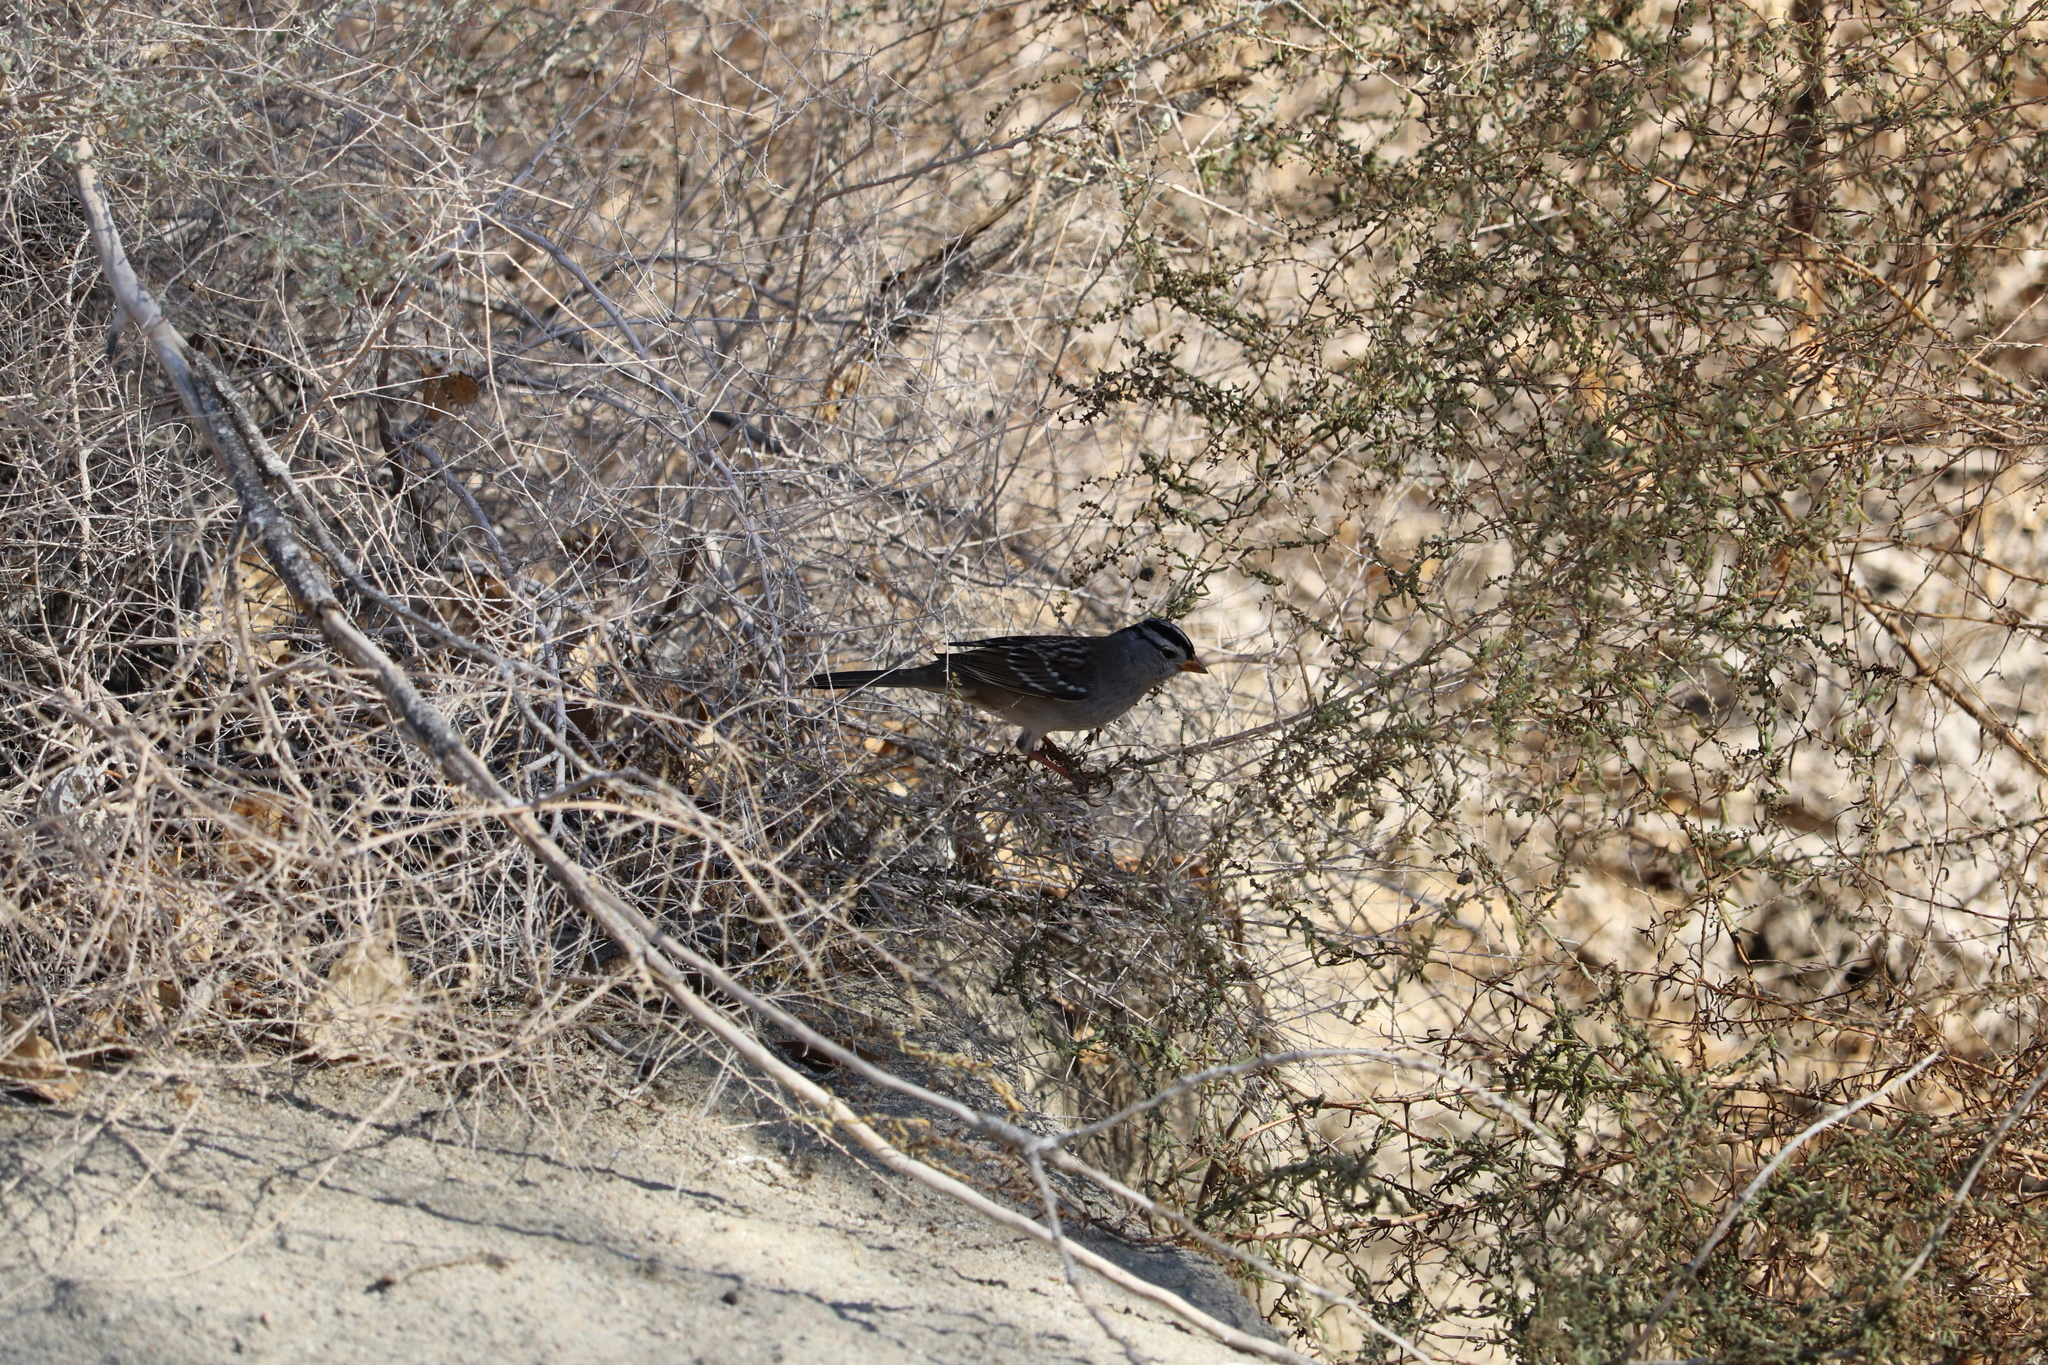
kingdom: Animalia
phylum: Chordata
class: Aves
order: Passeriformes
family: Passerellidae
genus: Zonotrichia
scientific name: Zonotrichia leucophrys
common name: White-crowned sparrow
